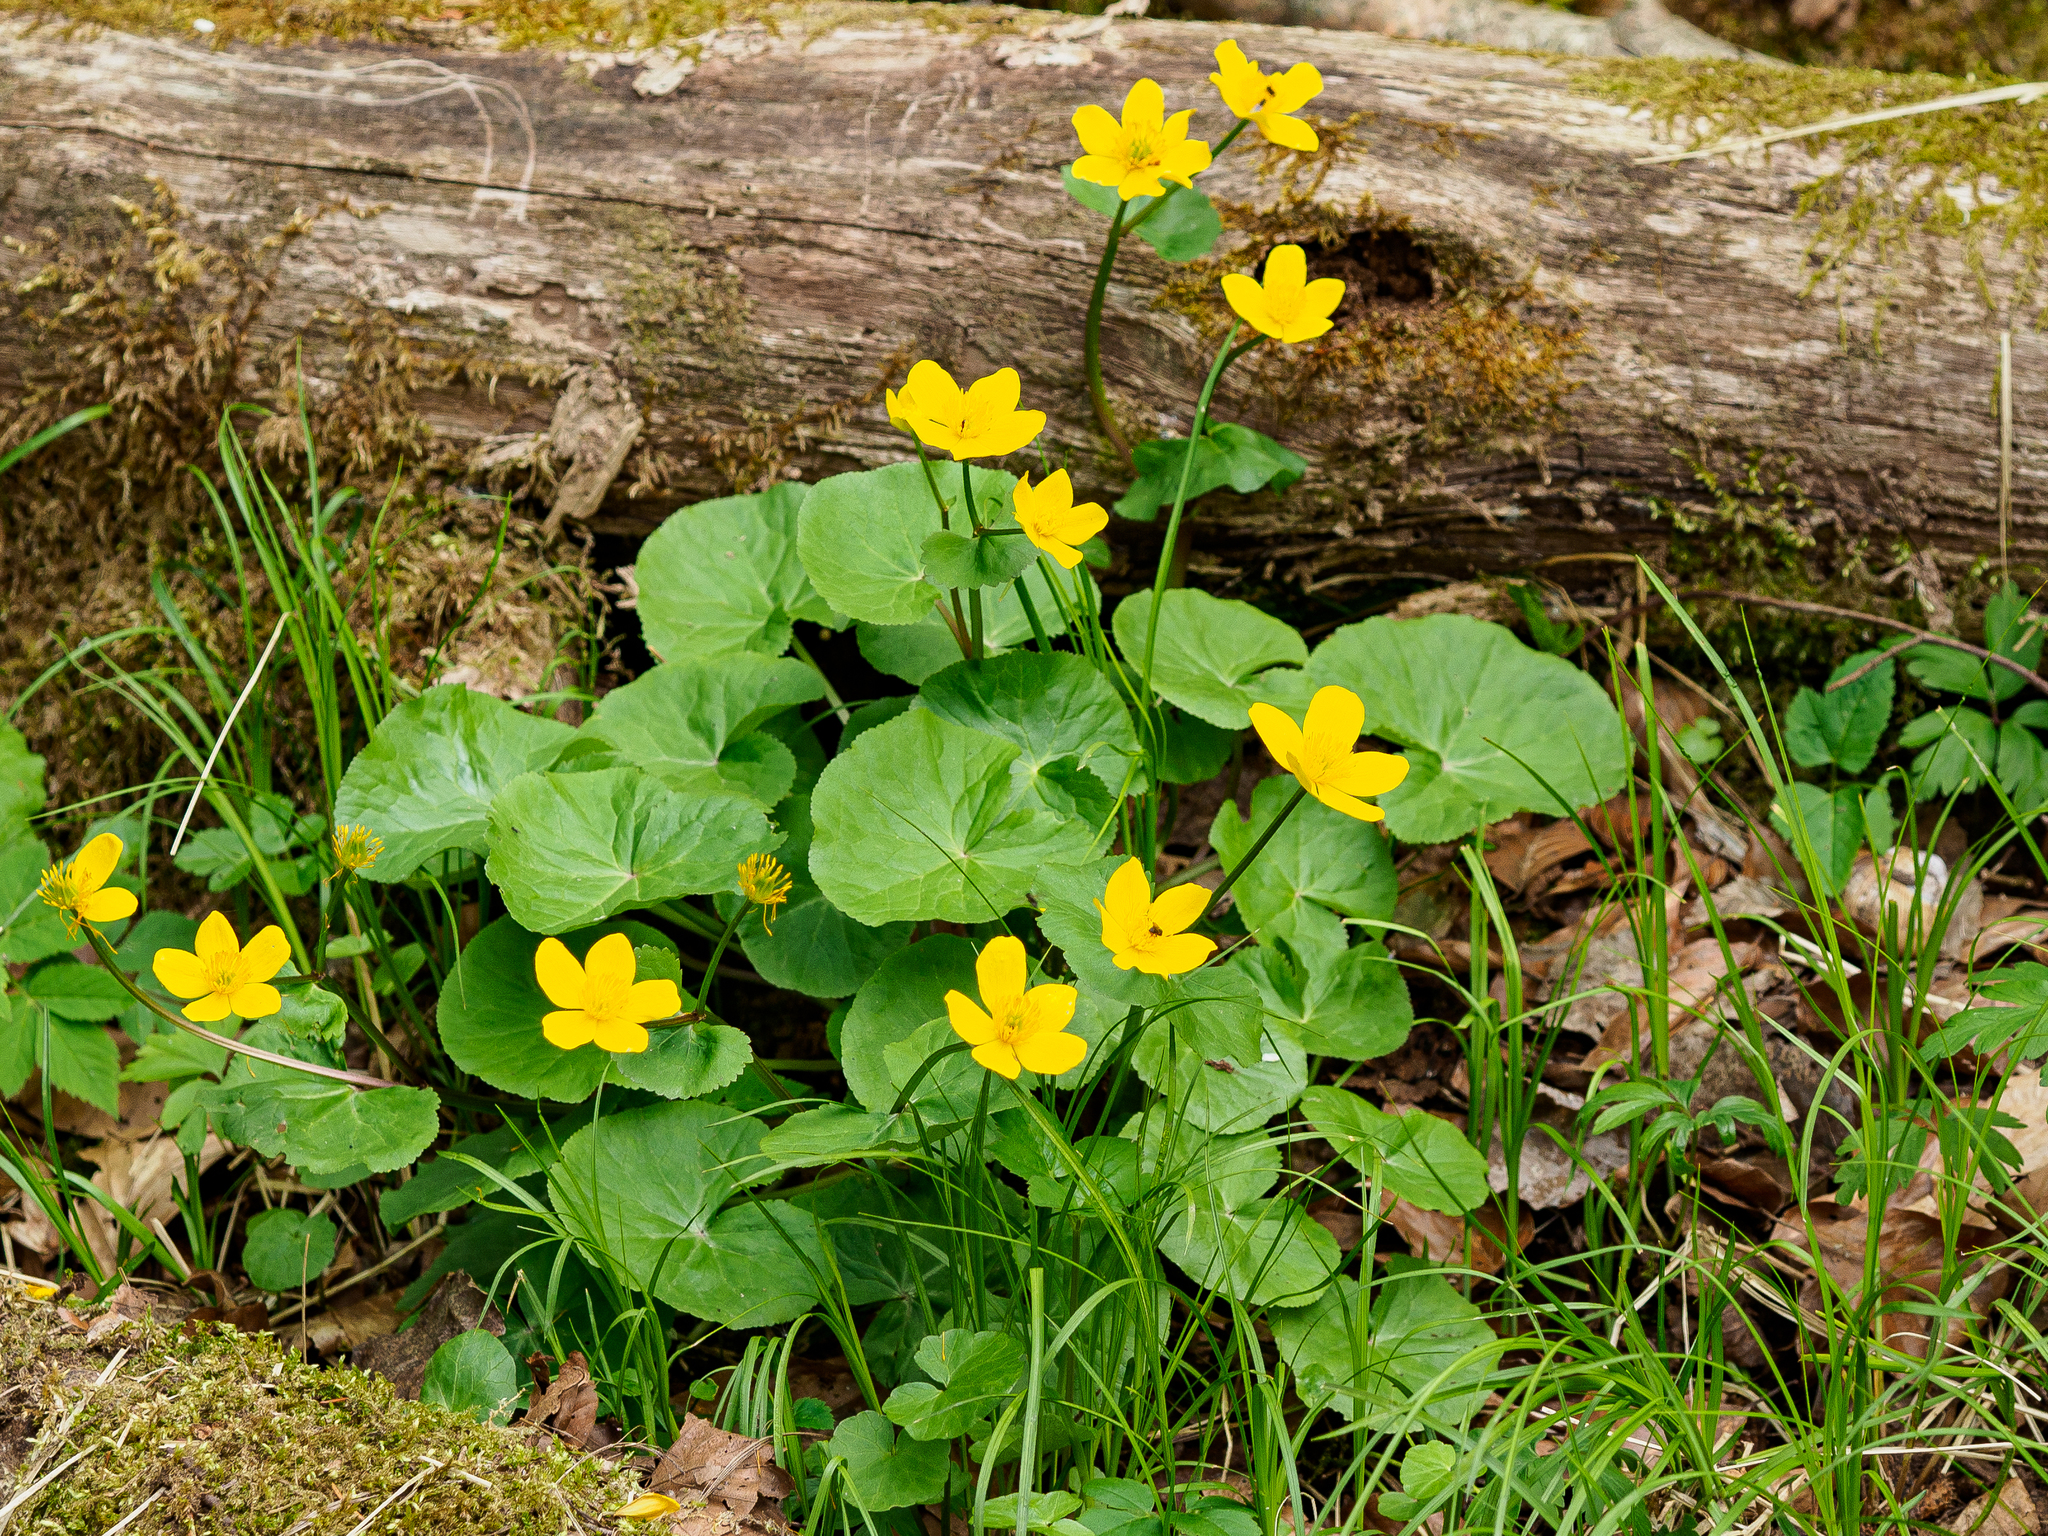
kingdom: Plantae
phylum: Tracheophyta
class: Magnoliopsida
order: Ranunculales
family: Ranunculaceae
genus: Caltha
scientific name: Caltha palustris
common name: Marsh marigold
